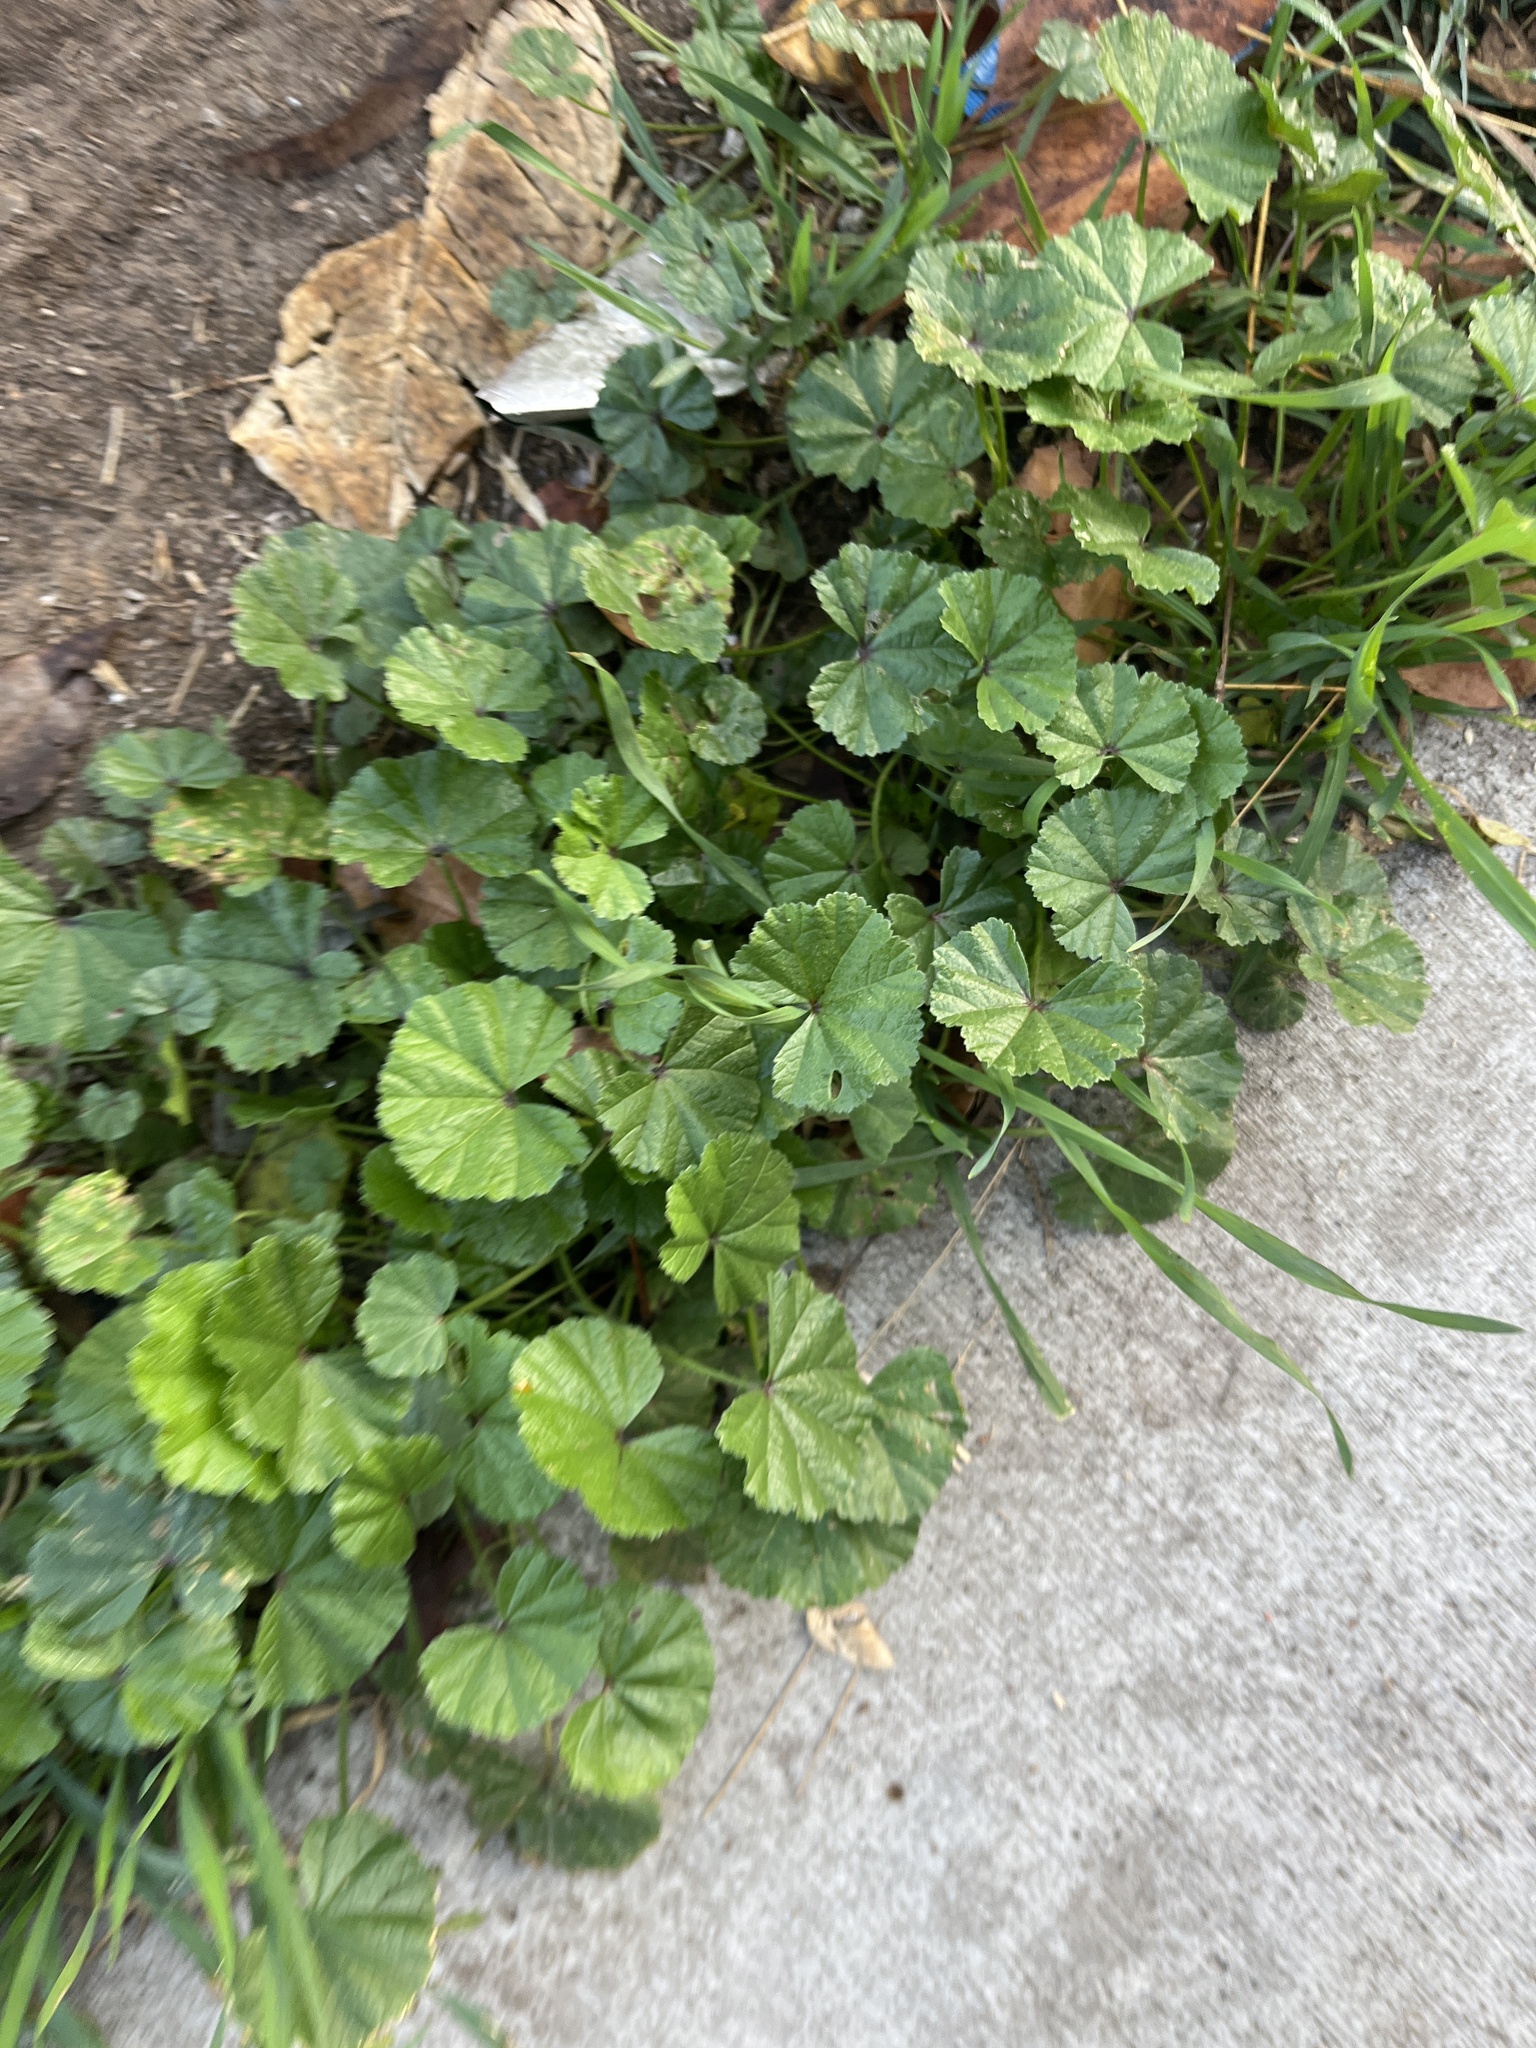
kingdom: Plantae
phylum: Tracheophyta
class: Magnoliopsida
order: Malvales
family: Malvaceae
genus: Malva
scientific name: Malva
